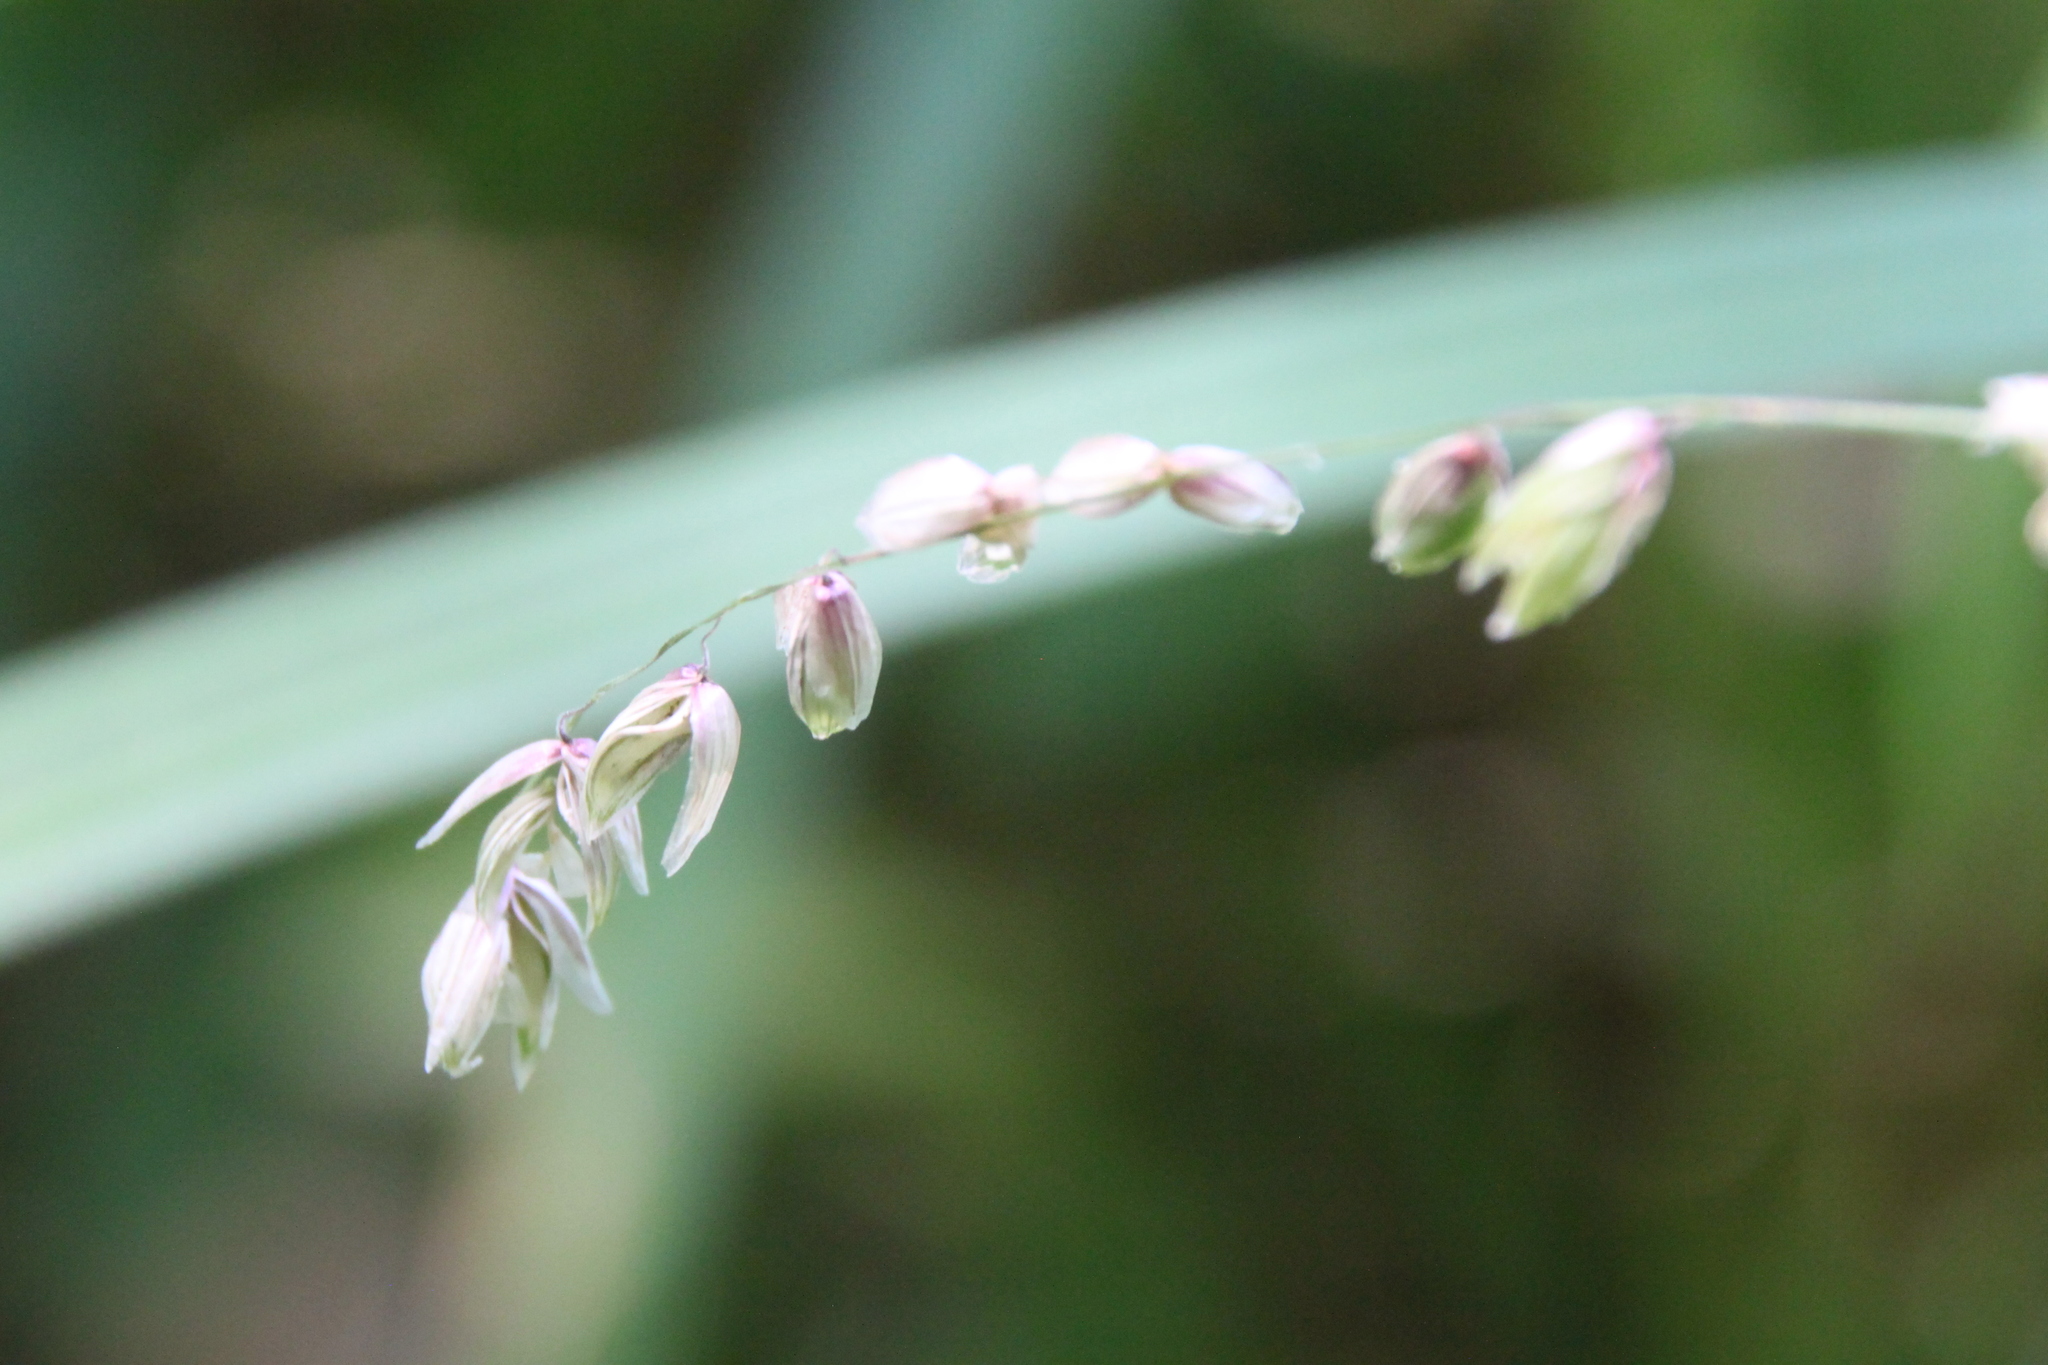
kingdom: Plantae
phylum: Tracheophyta
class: Liliopsida
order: Poales
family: Poaceae
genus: Melica
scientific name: Melica nutans
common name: Mountain melick
